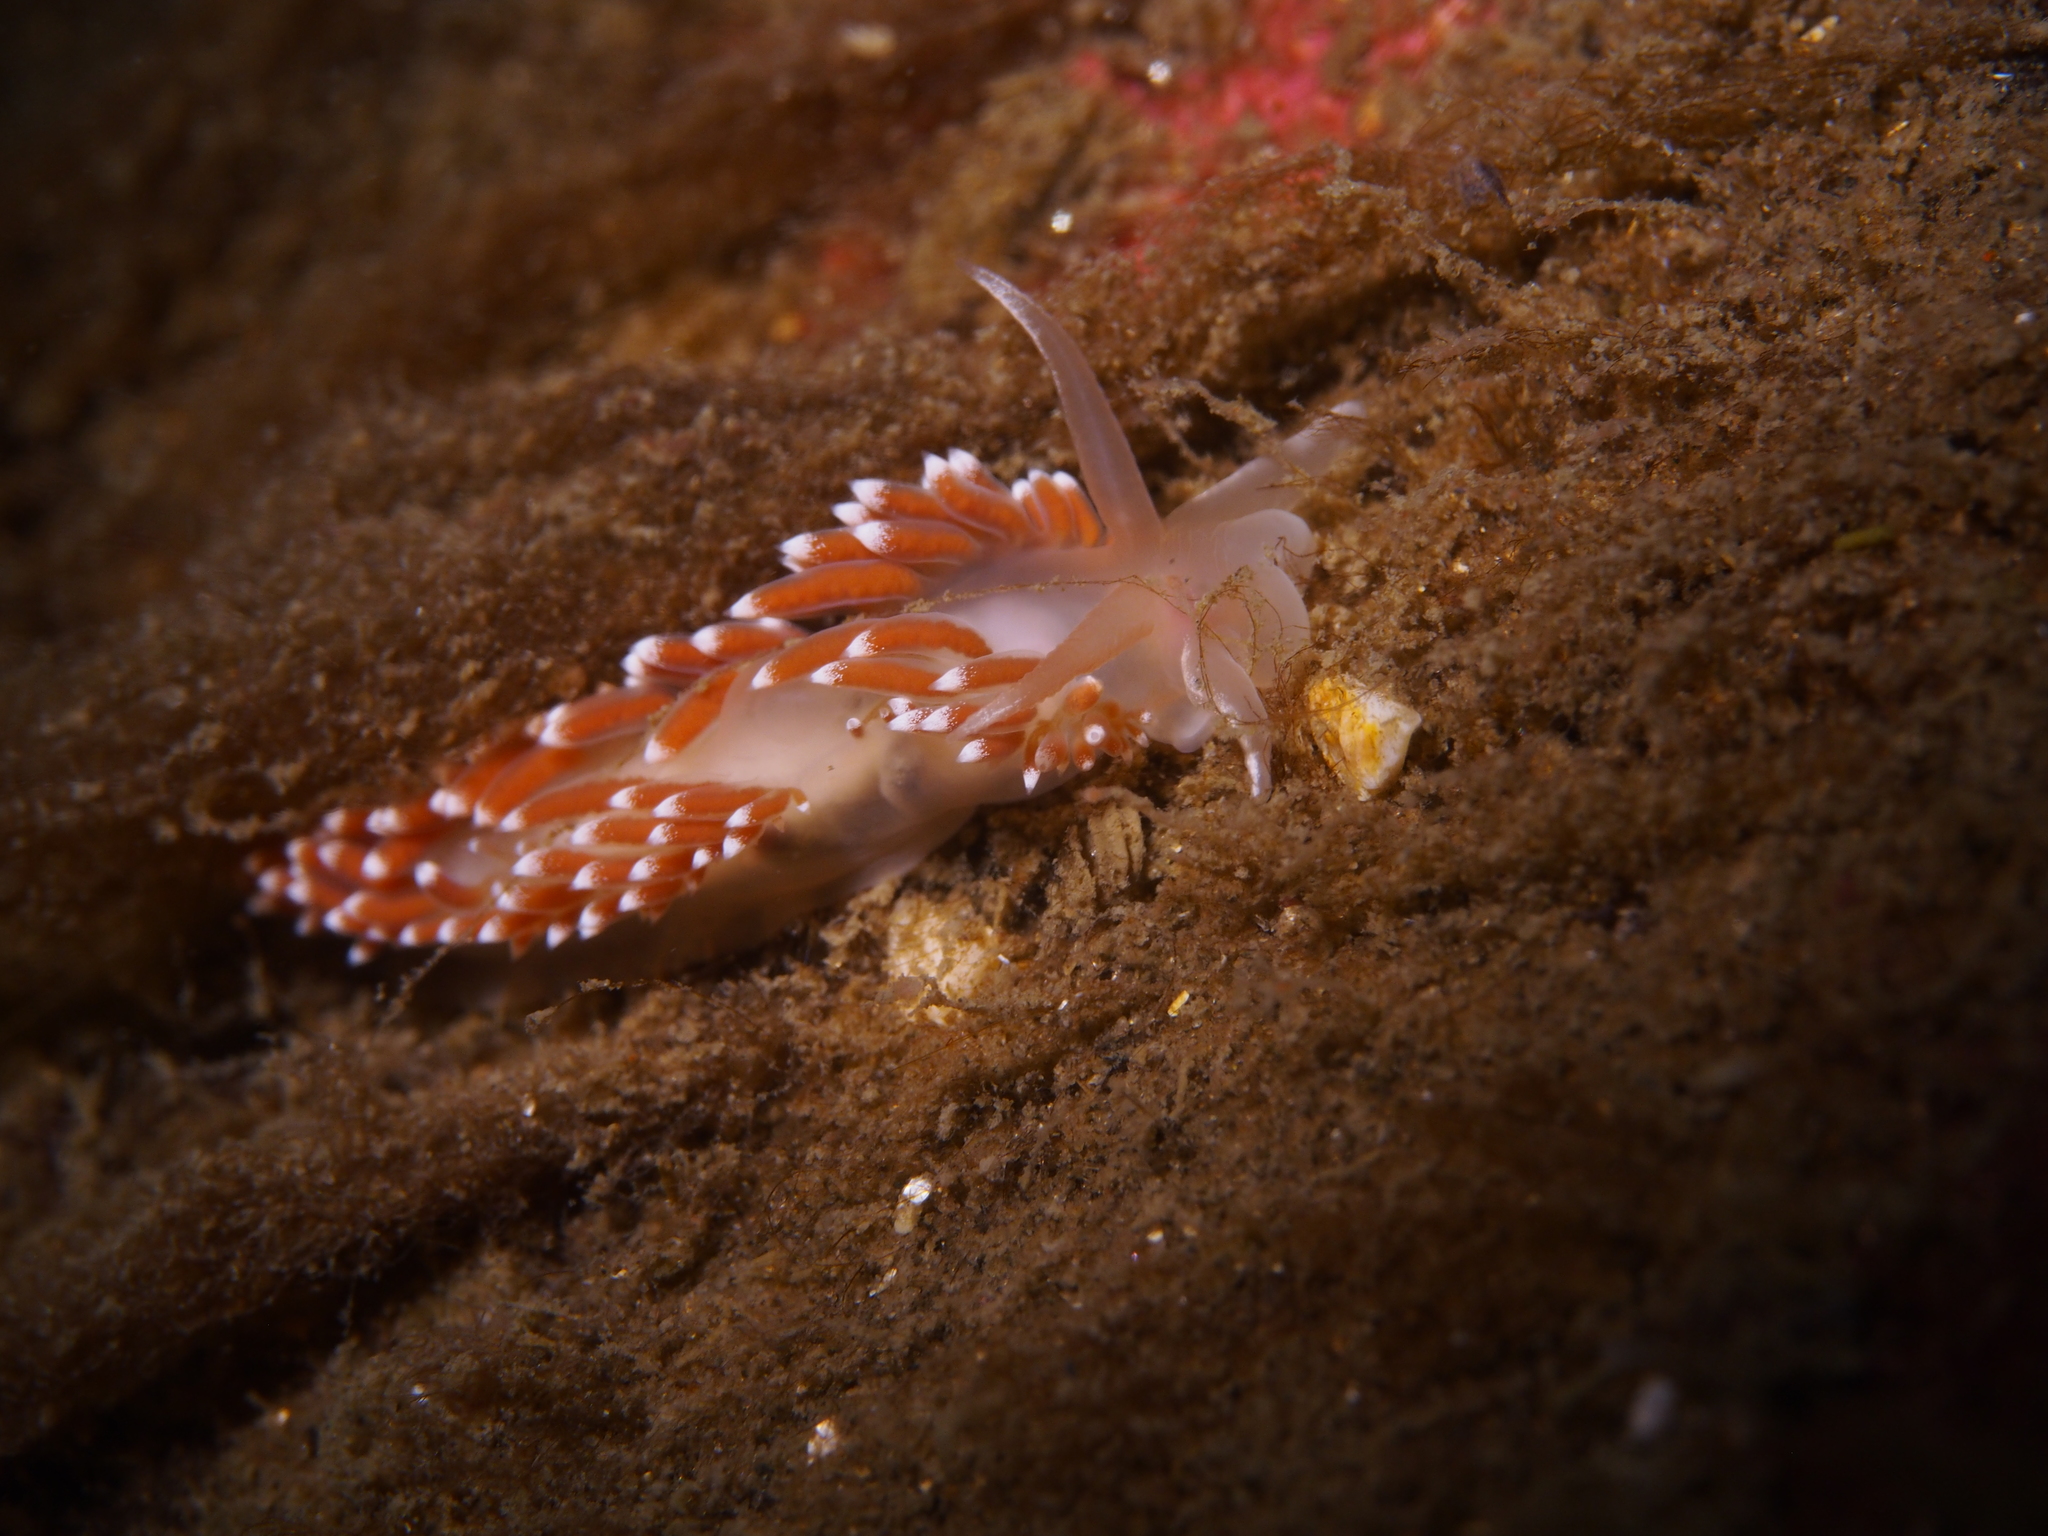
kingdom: Animalia
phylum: Mollusca
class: Gastropoda
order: Nudibranchia
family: Coryphellidae
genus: Coryphella
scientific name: Coryphella verrucosa
